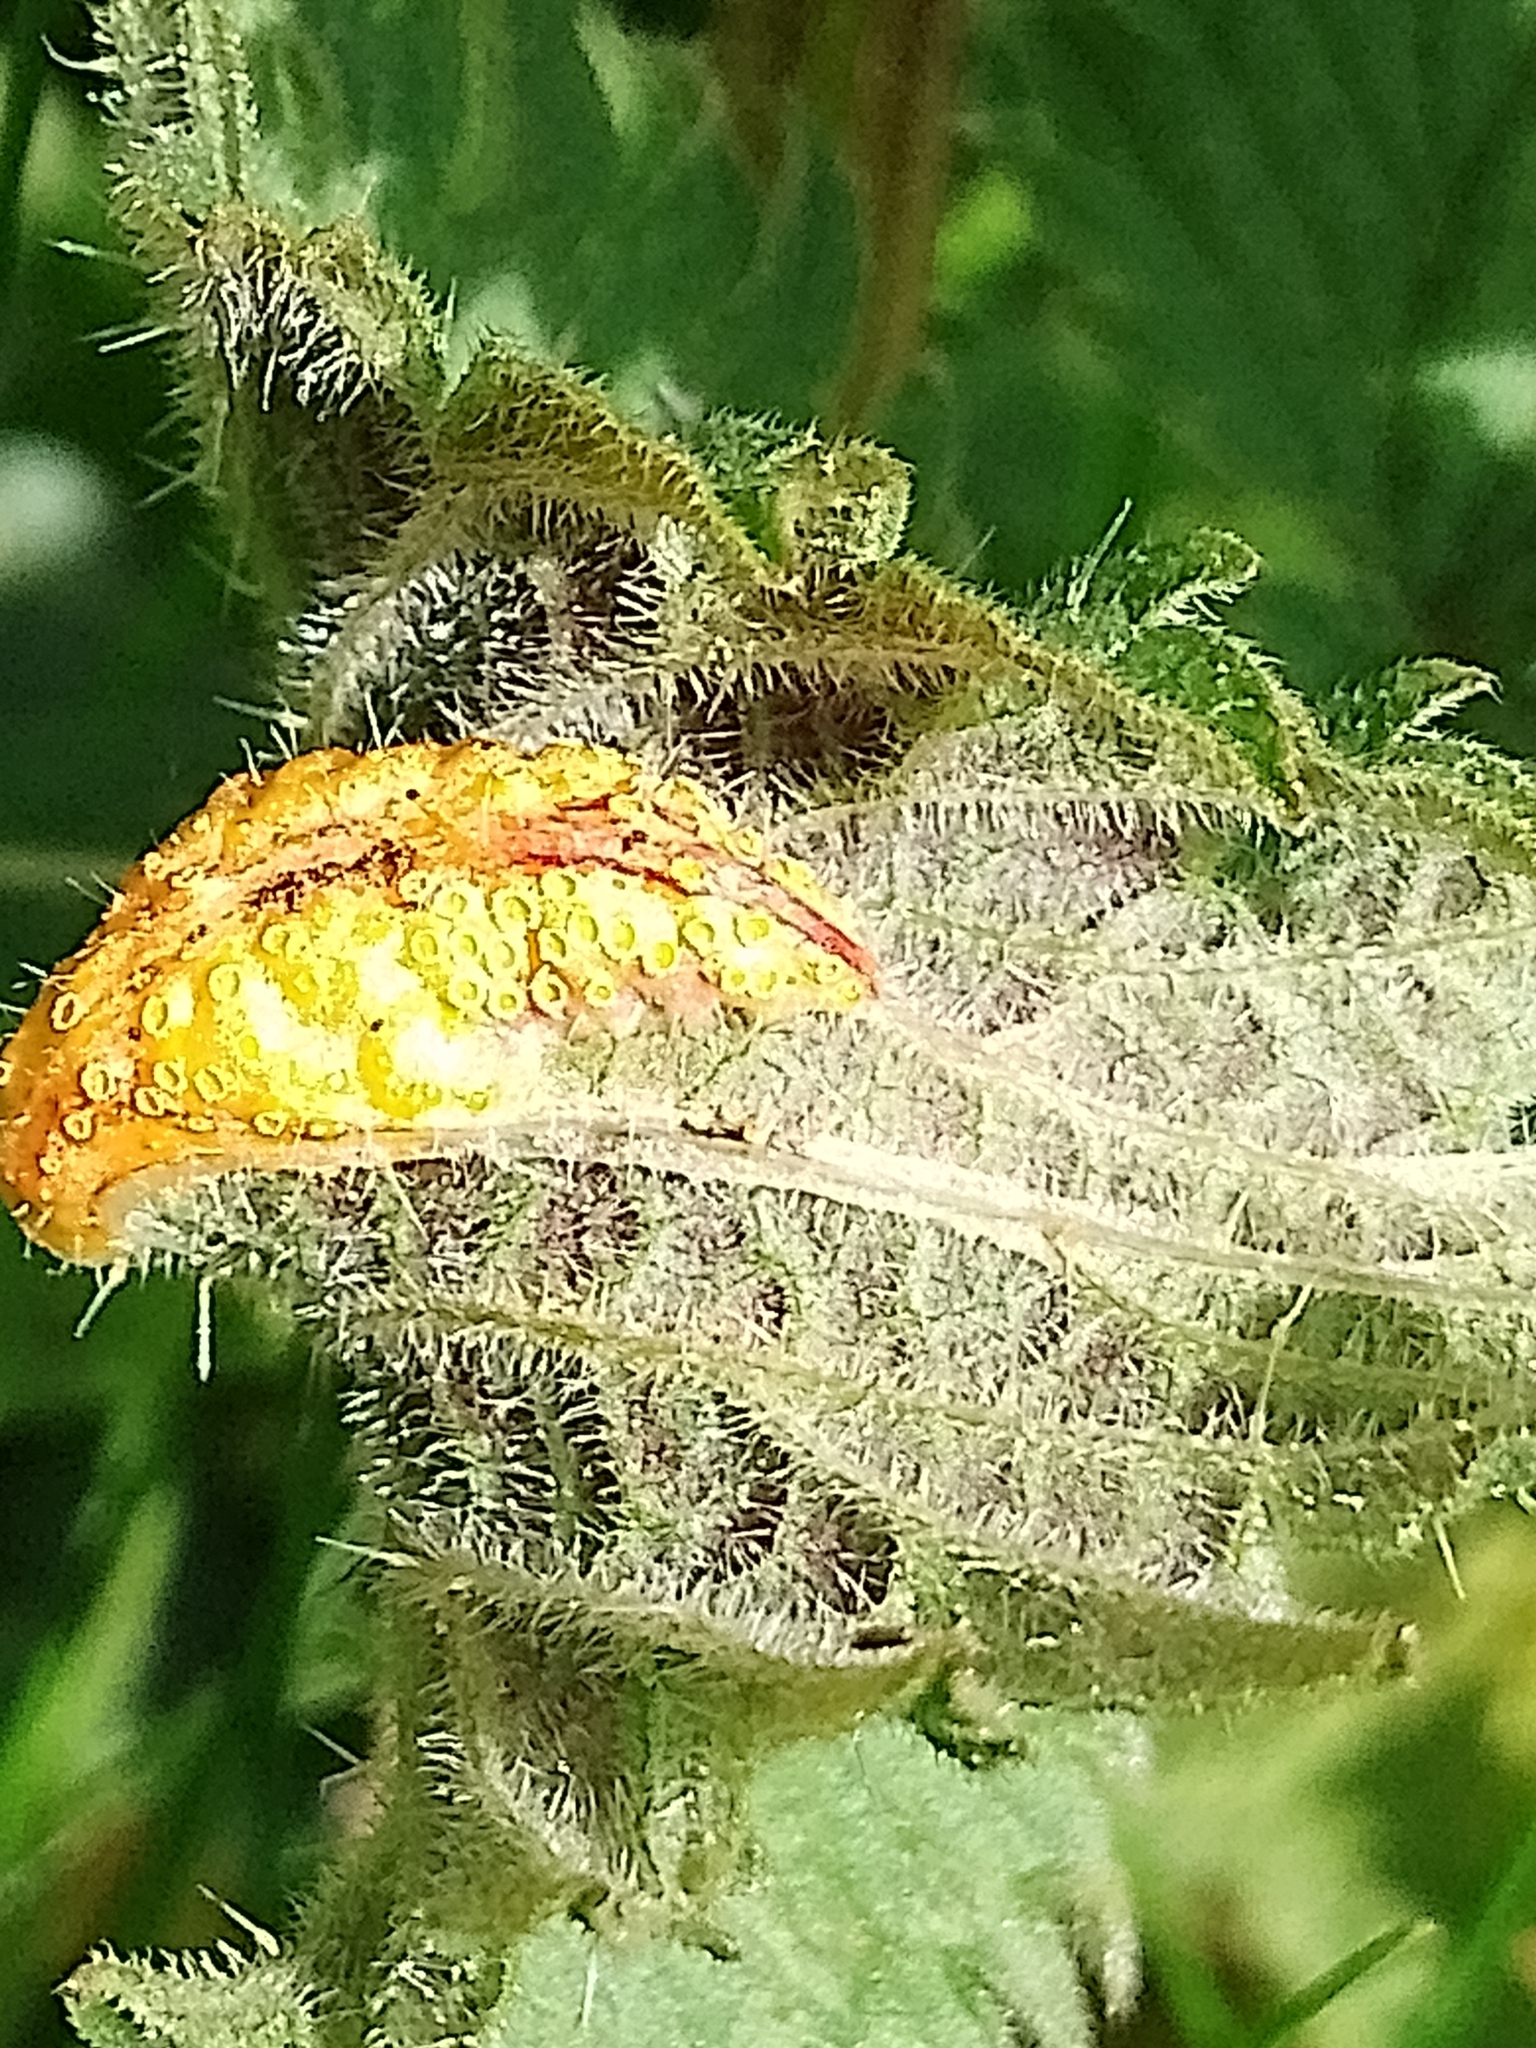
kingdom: Fungi
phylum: Basidiomycota
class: Pucciniomycetes
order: Pucciniales
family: Pucciniaceae
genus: Puccinia
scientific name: Puccinia urticata
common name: Nettle clustercup rust fungus
